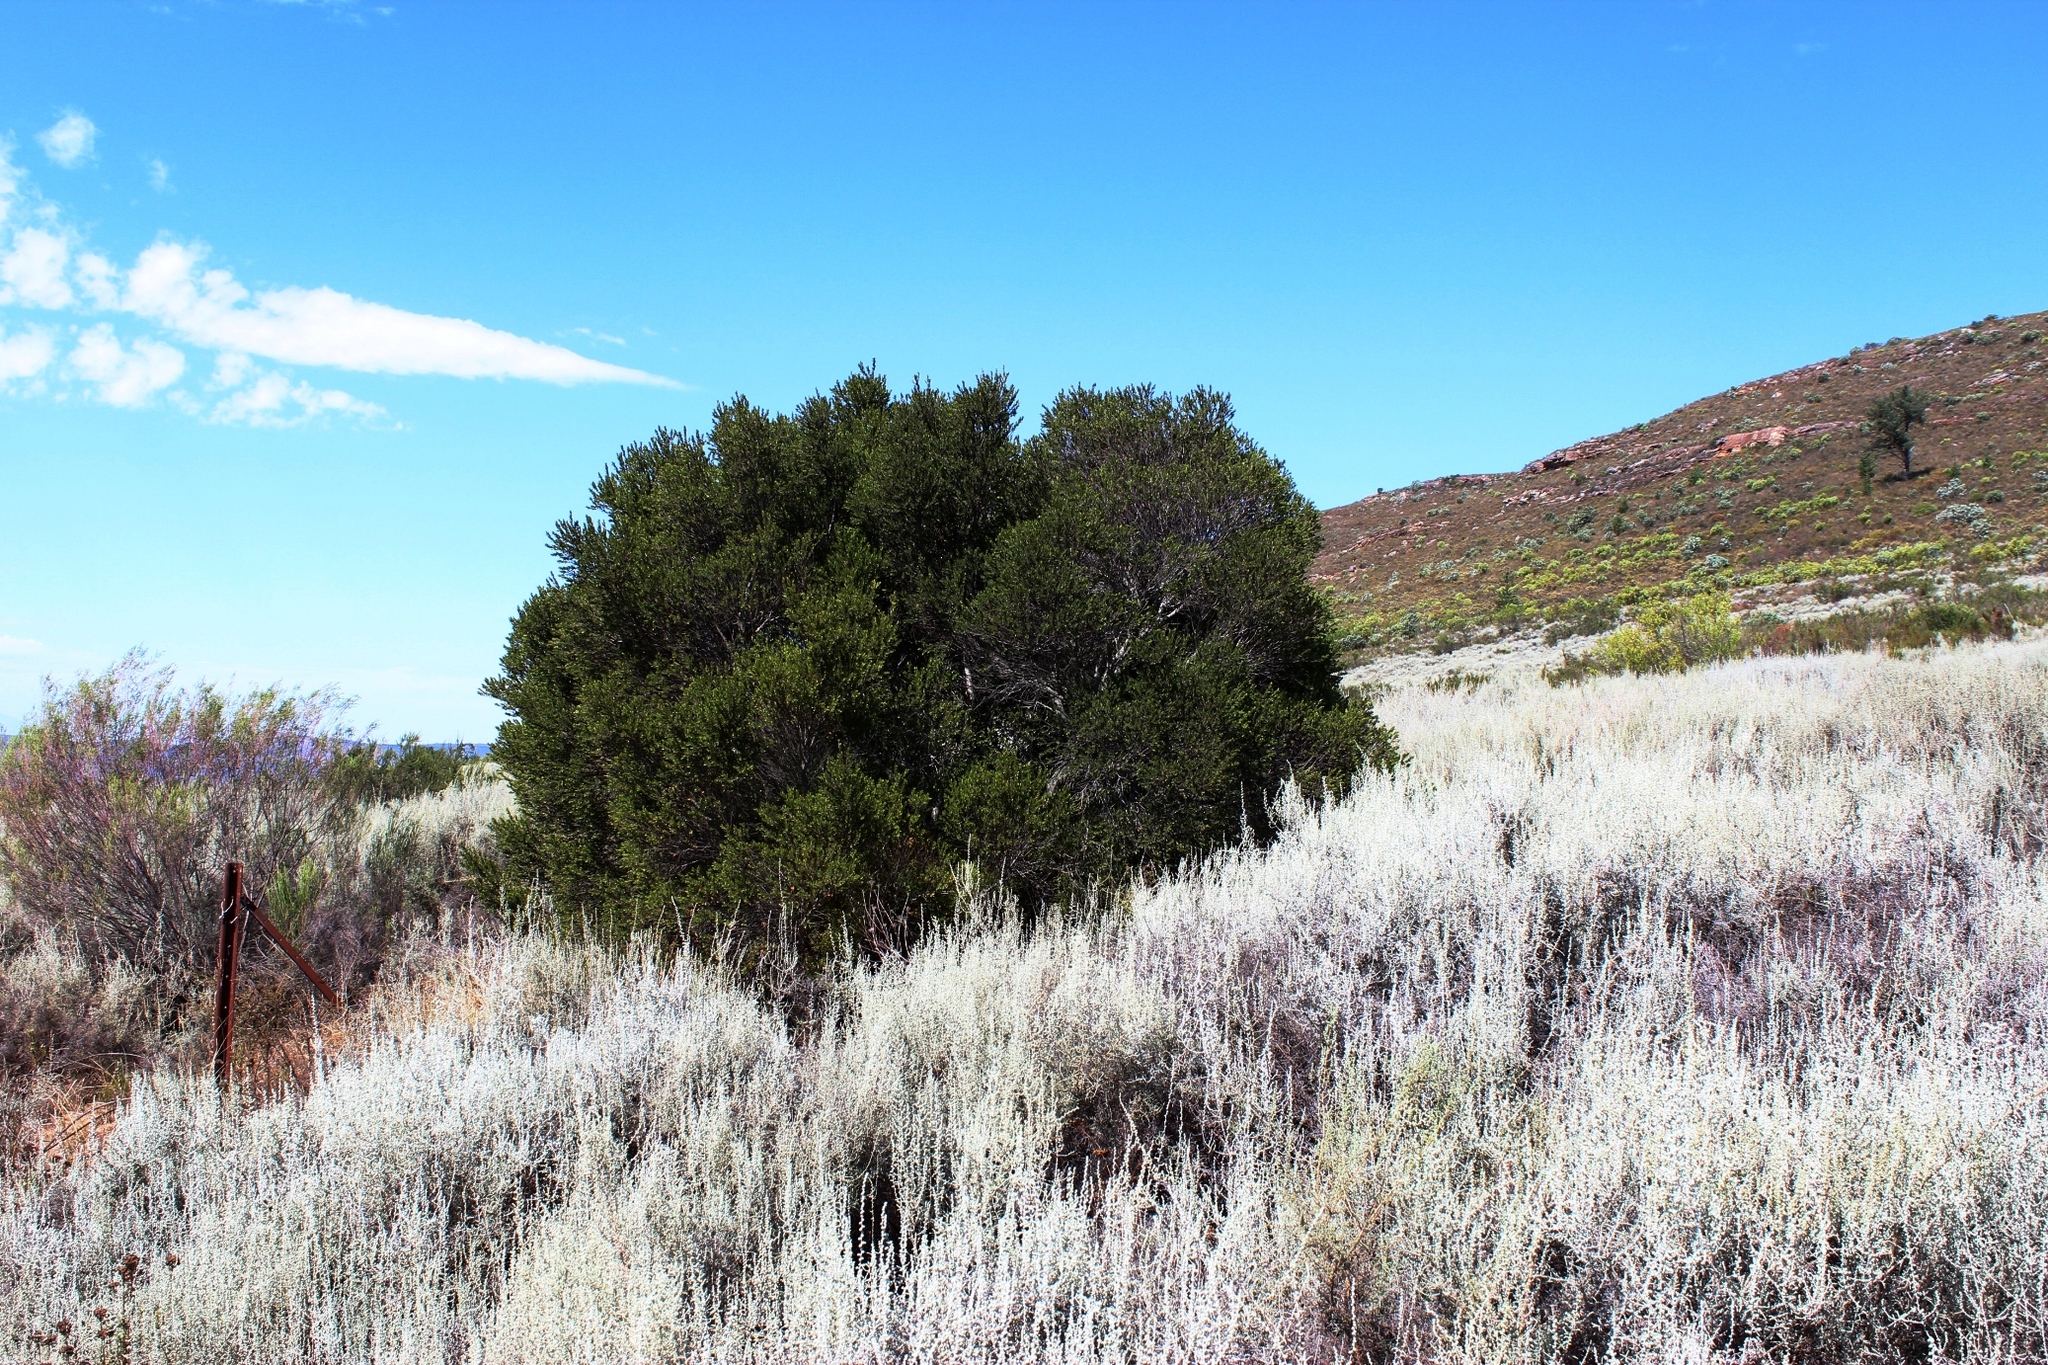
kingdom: Plantae
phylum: Tracheophyta
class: Magnoliopsida
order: Ericales
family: Ebenaceae
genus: Diospyros
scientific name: Diospyros glabra
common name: Fynbos star apple
